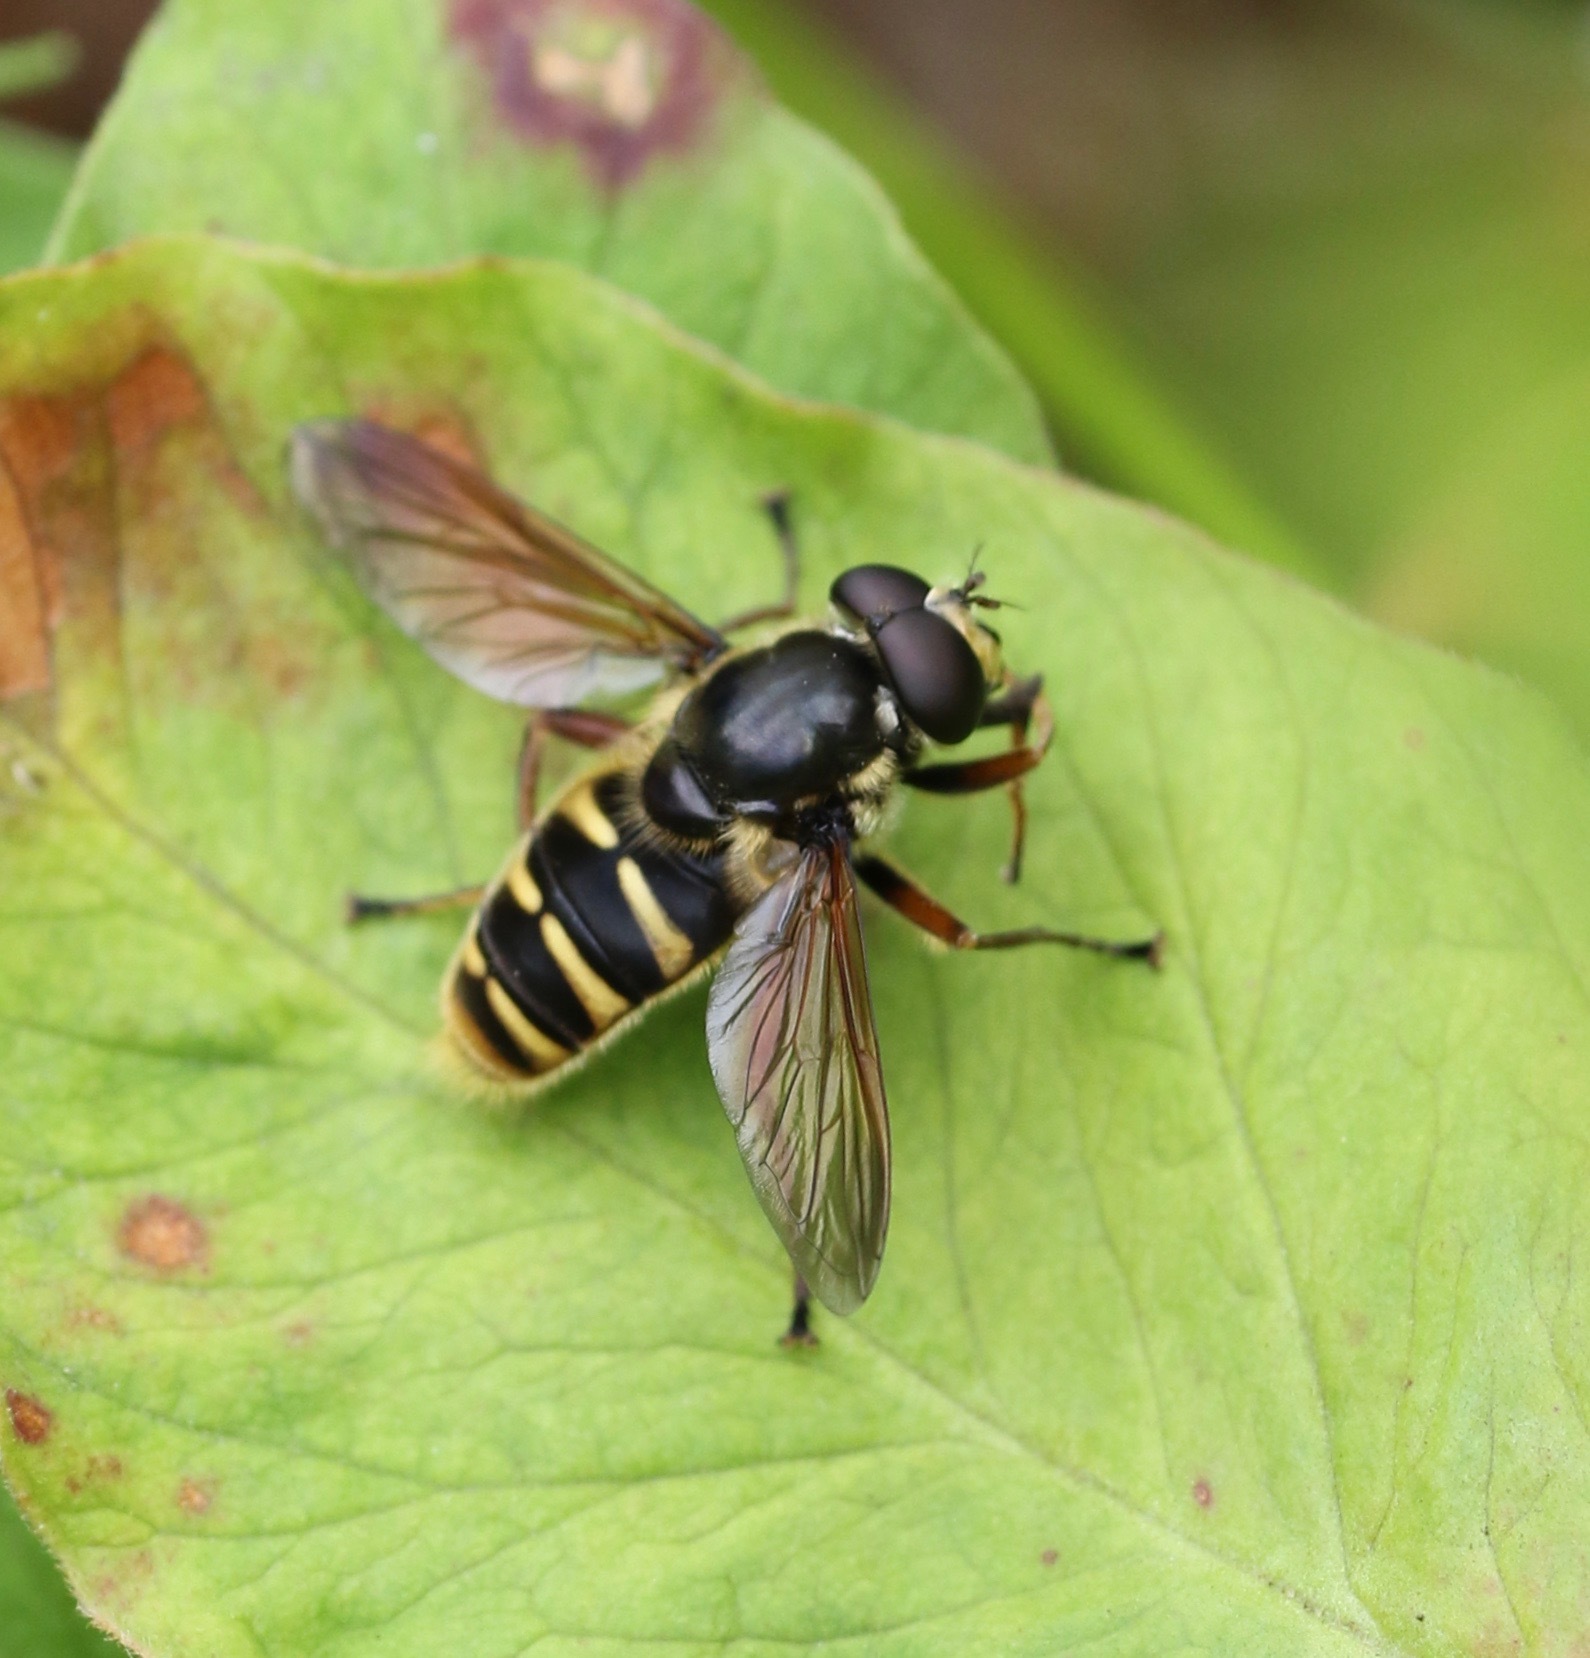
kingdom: Animalia
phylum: Arthropoda
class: Insecta
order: Diptera
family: Syrphidae
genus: Sericomyia
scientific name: Sericomyia silentis
